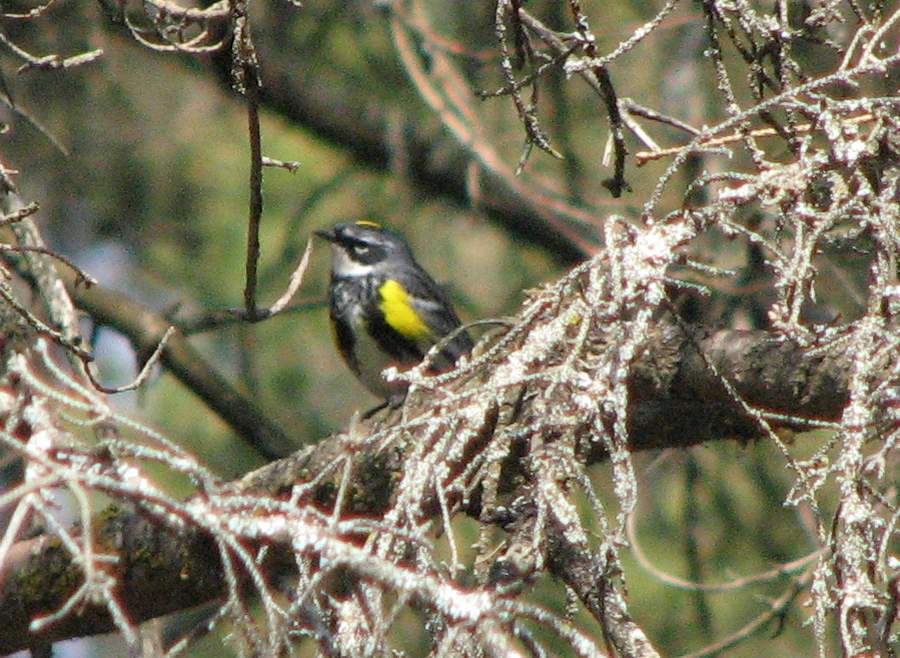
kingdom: Animalia
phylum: Chordata
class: Aves
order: Passeriformes
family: Parulidae
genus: Setophaga
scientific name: Setophaga coronata
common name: Myrtle warbler
